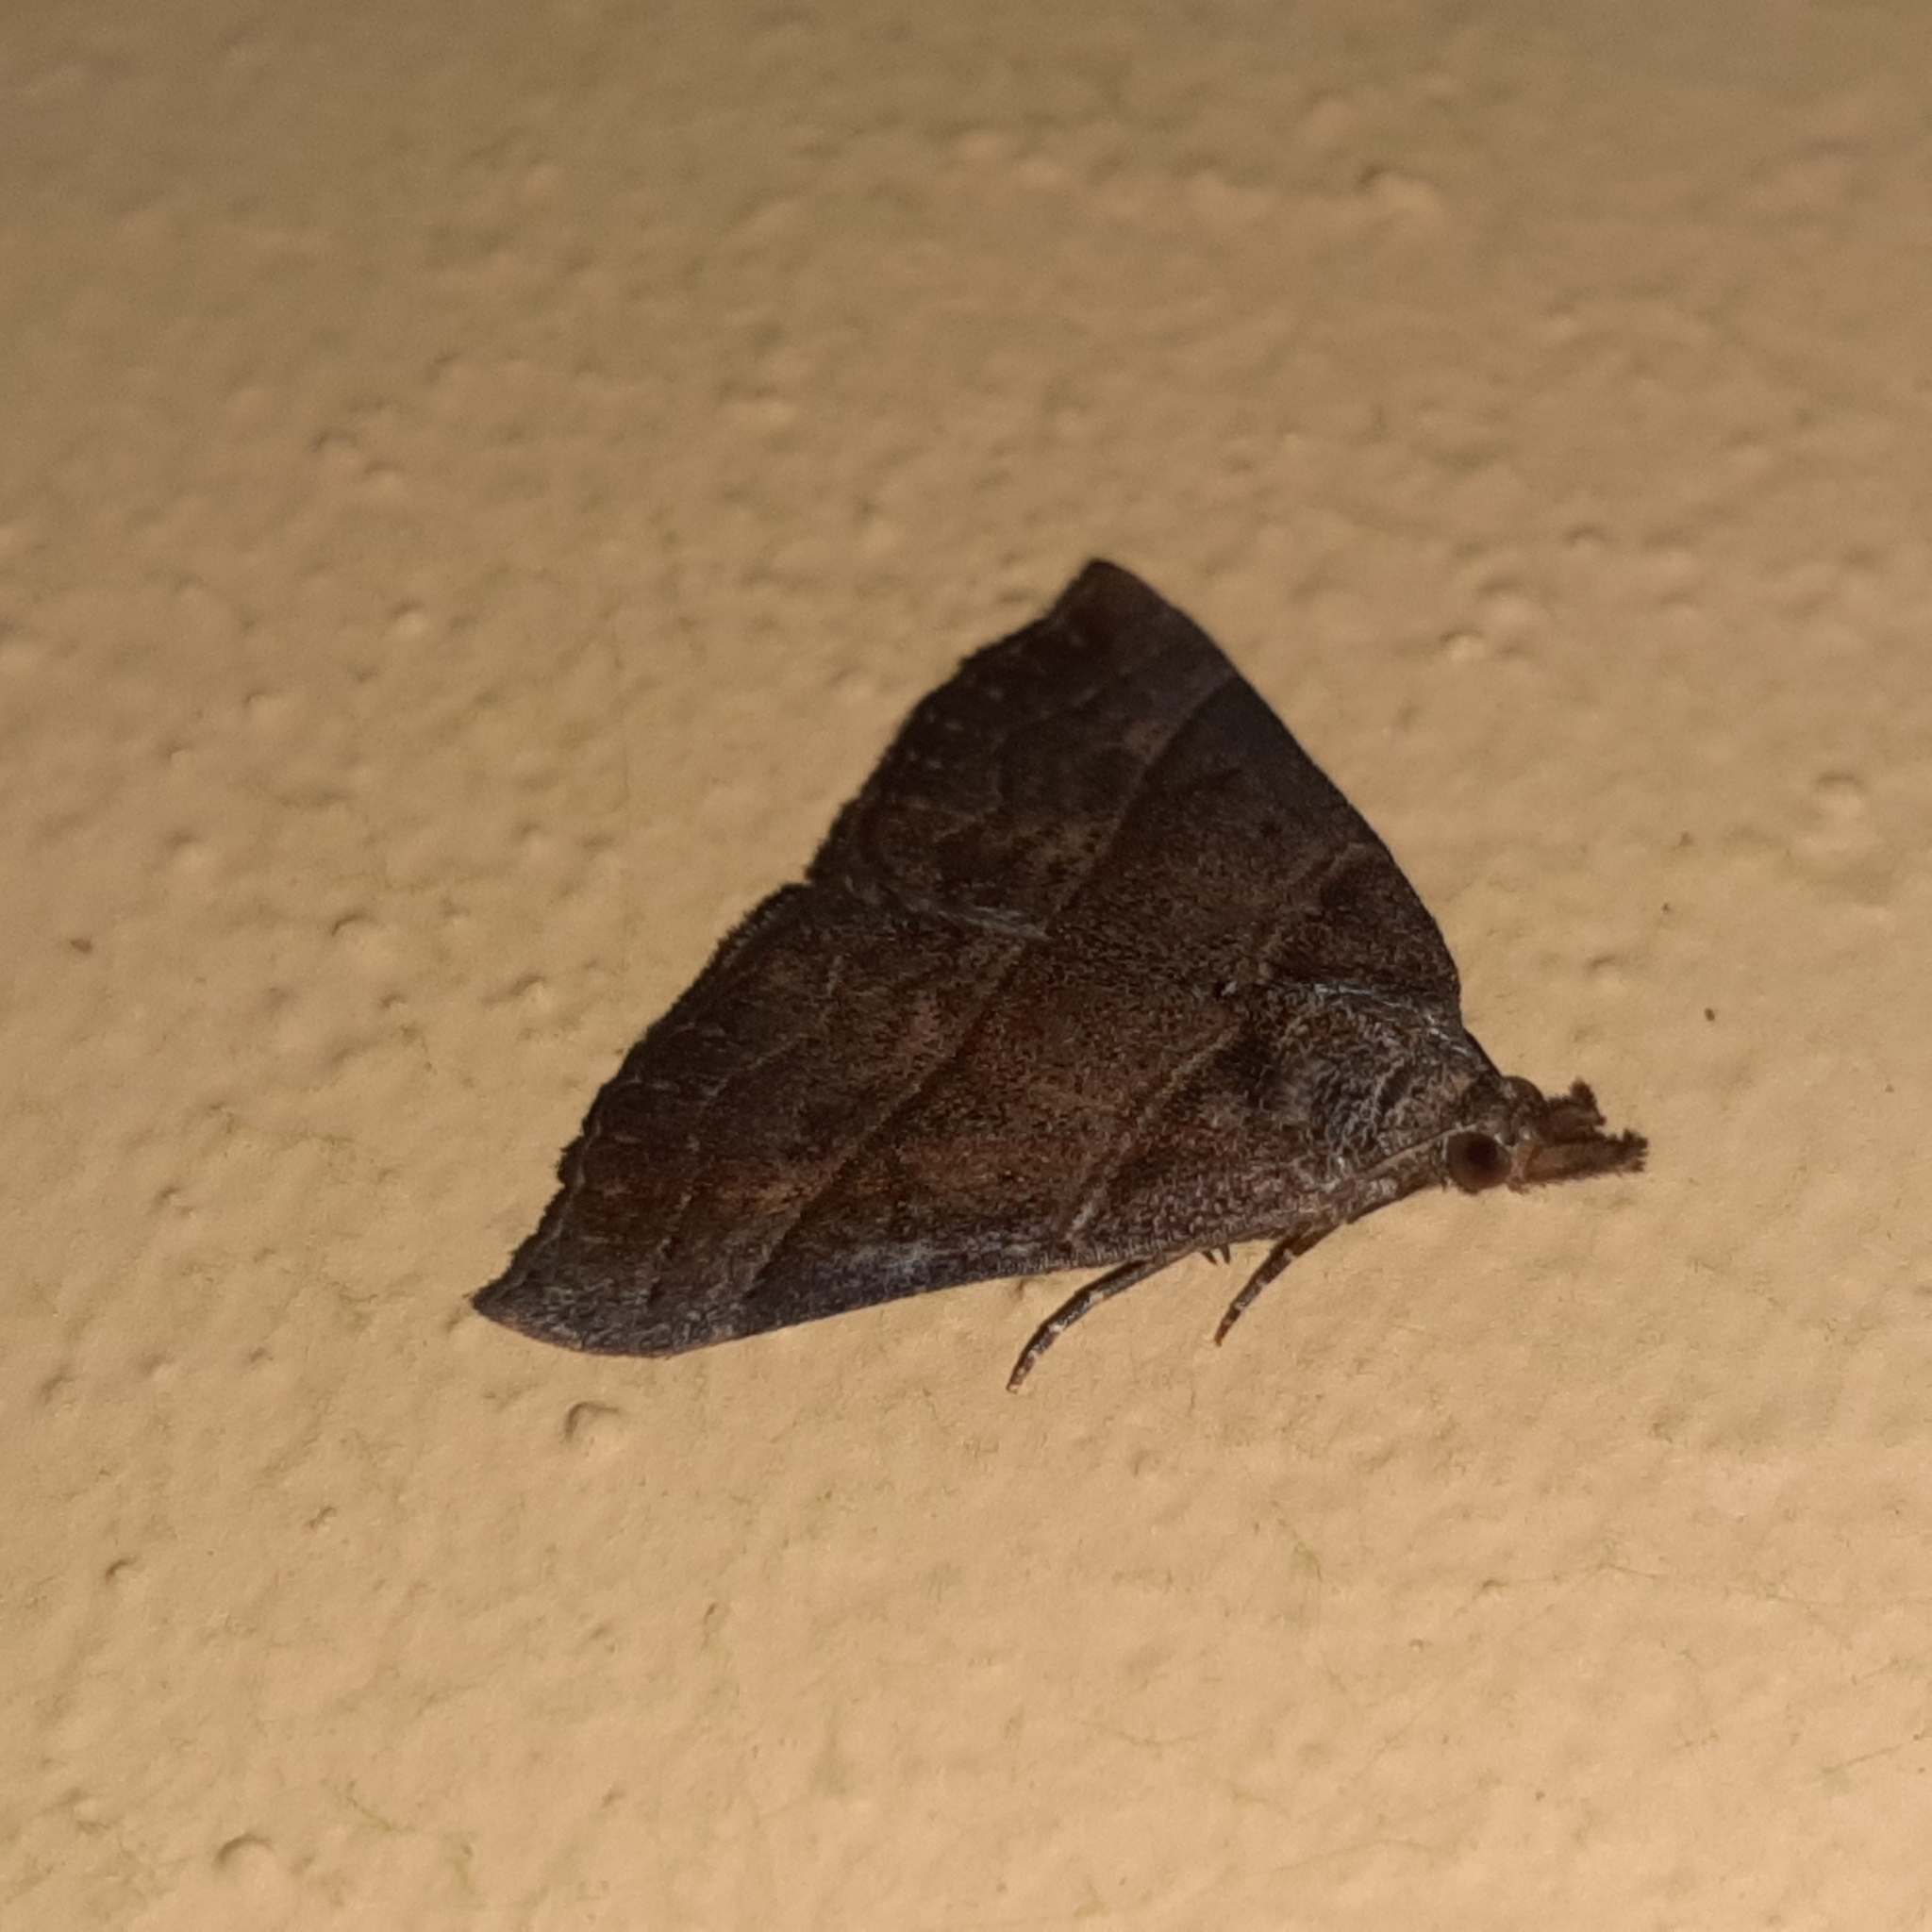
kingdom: Animalia
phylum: Arthropoda
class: Insecta
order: Lepidoptera
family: Erebidae
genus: Hypena
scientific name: Hypena lollia
